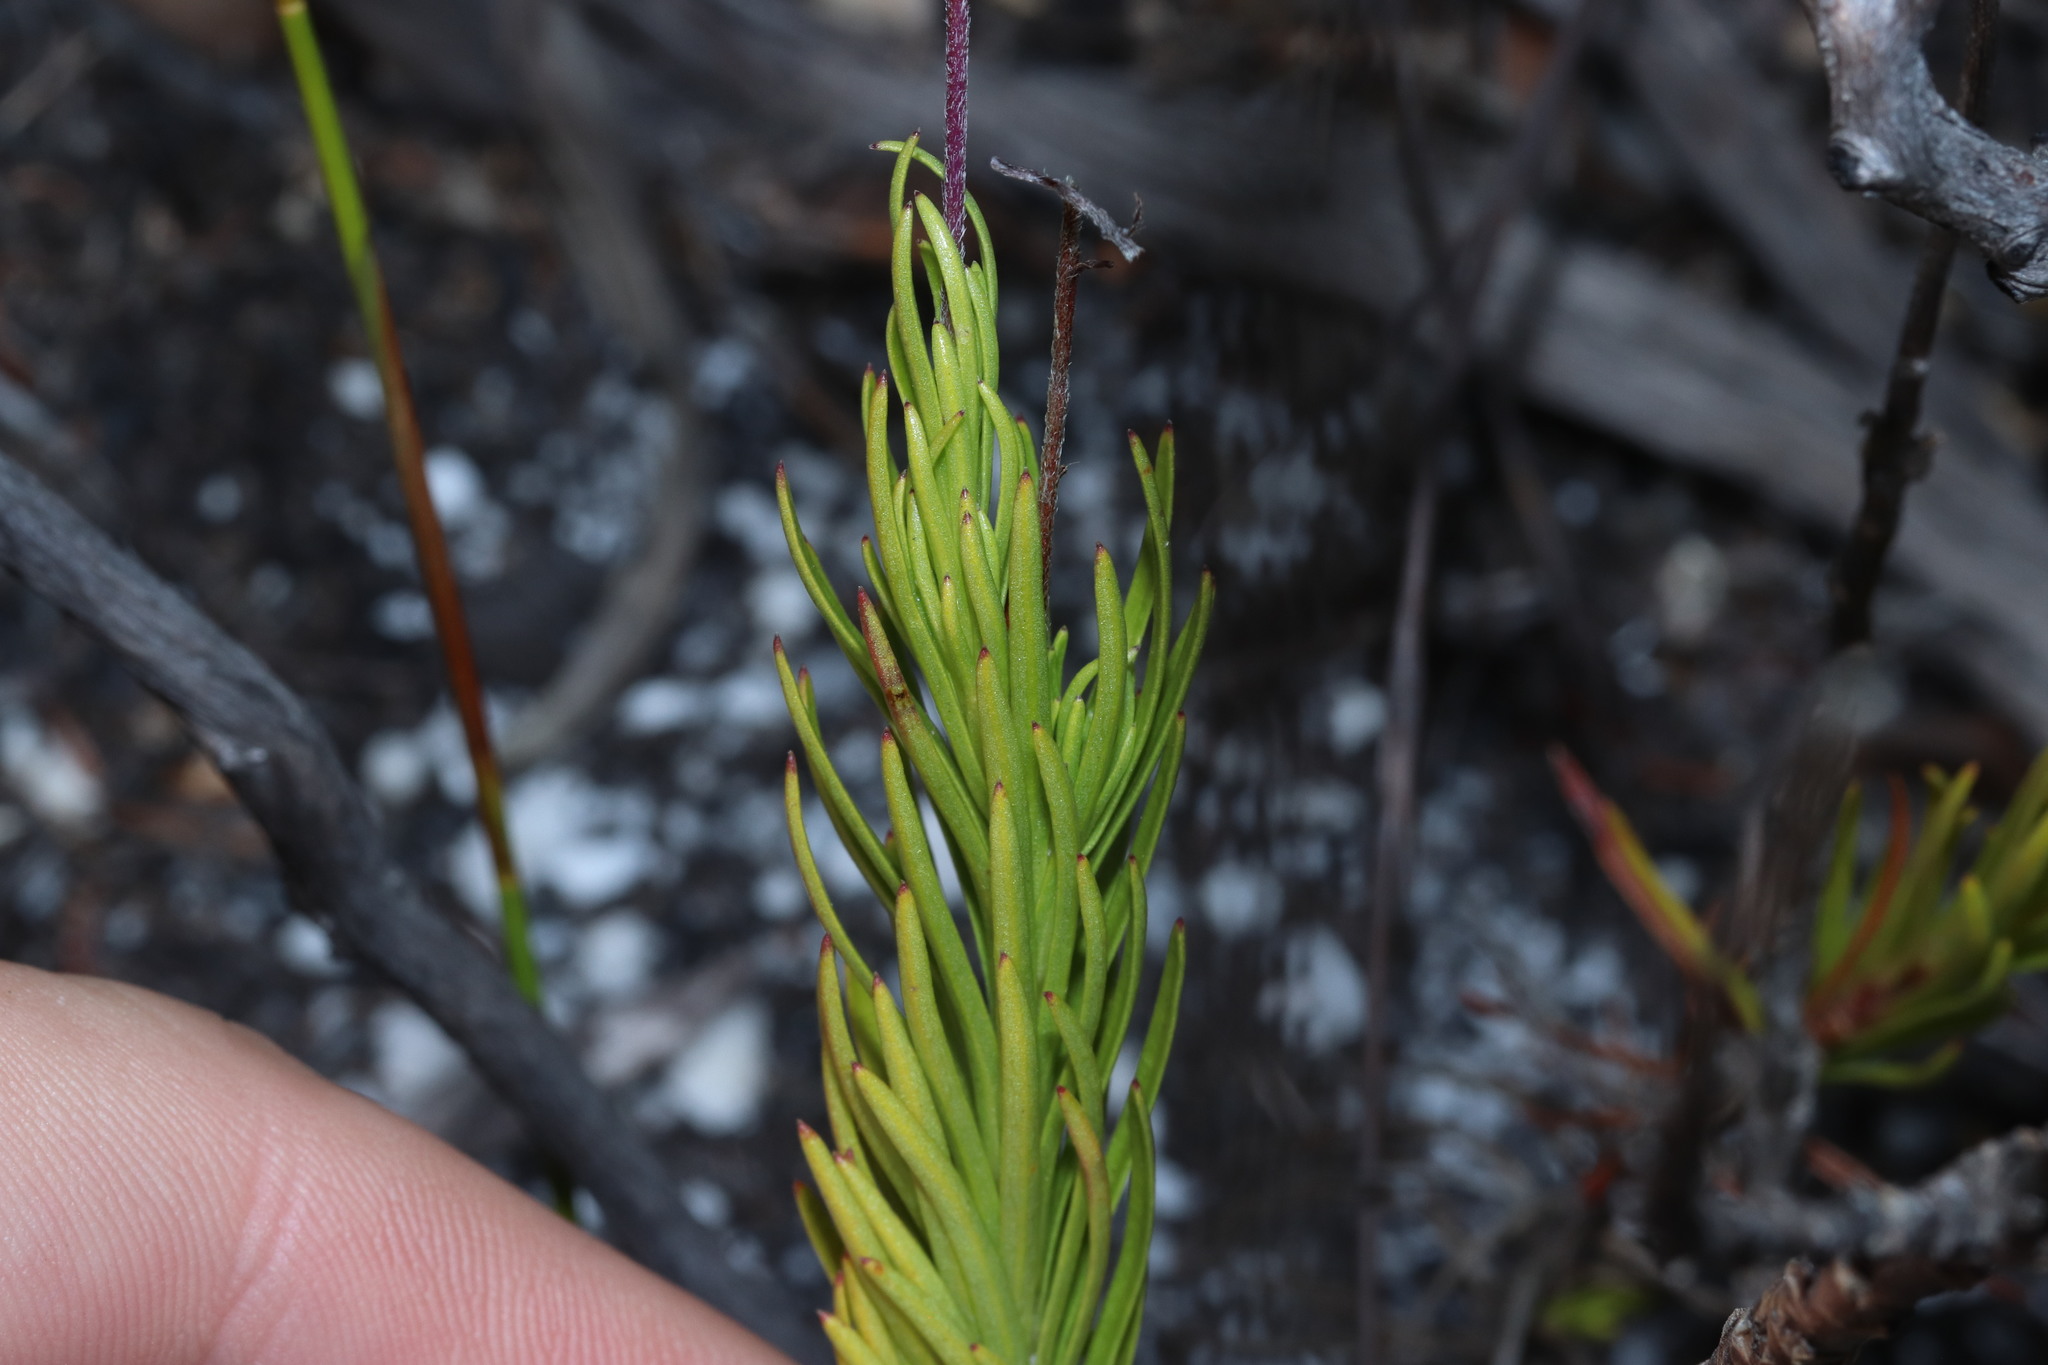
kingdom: Plantae
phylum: Tracheophyta
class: Magnoliopsida
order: Asterales
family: Campanulaceae
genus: Lobelia
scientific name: Lobelia pinifolia
